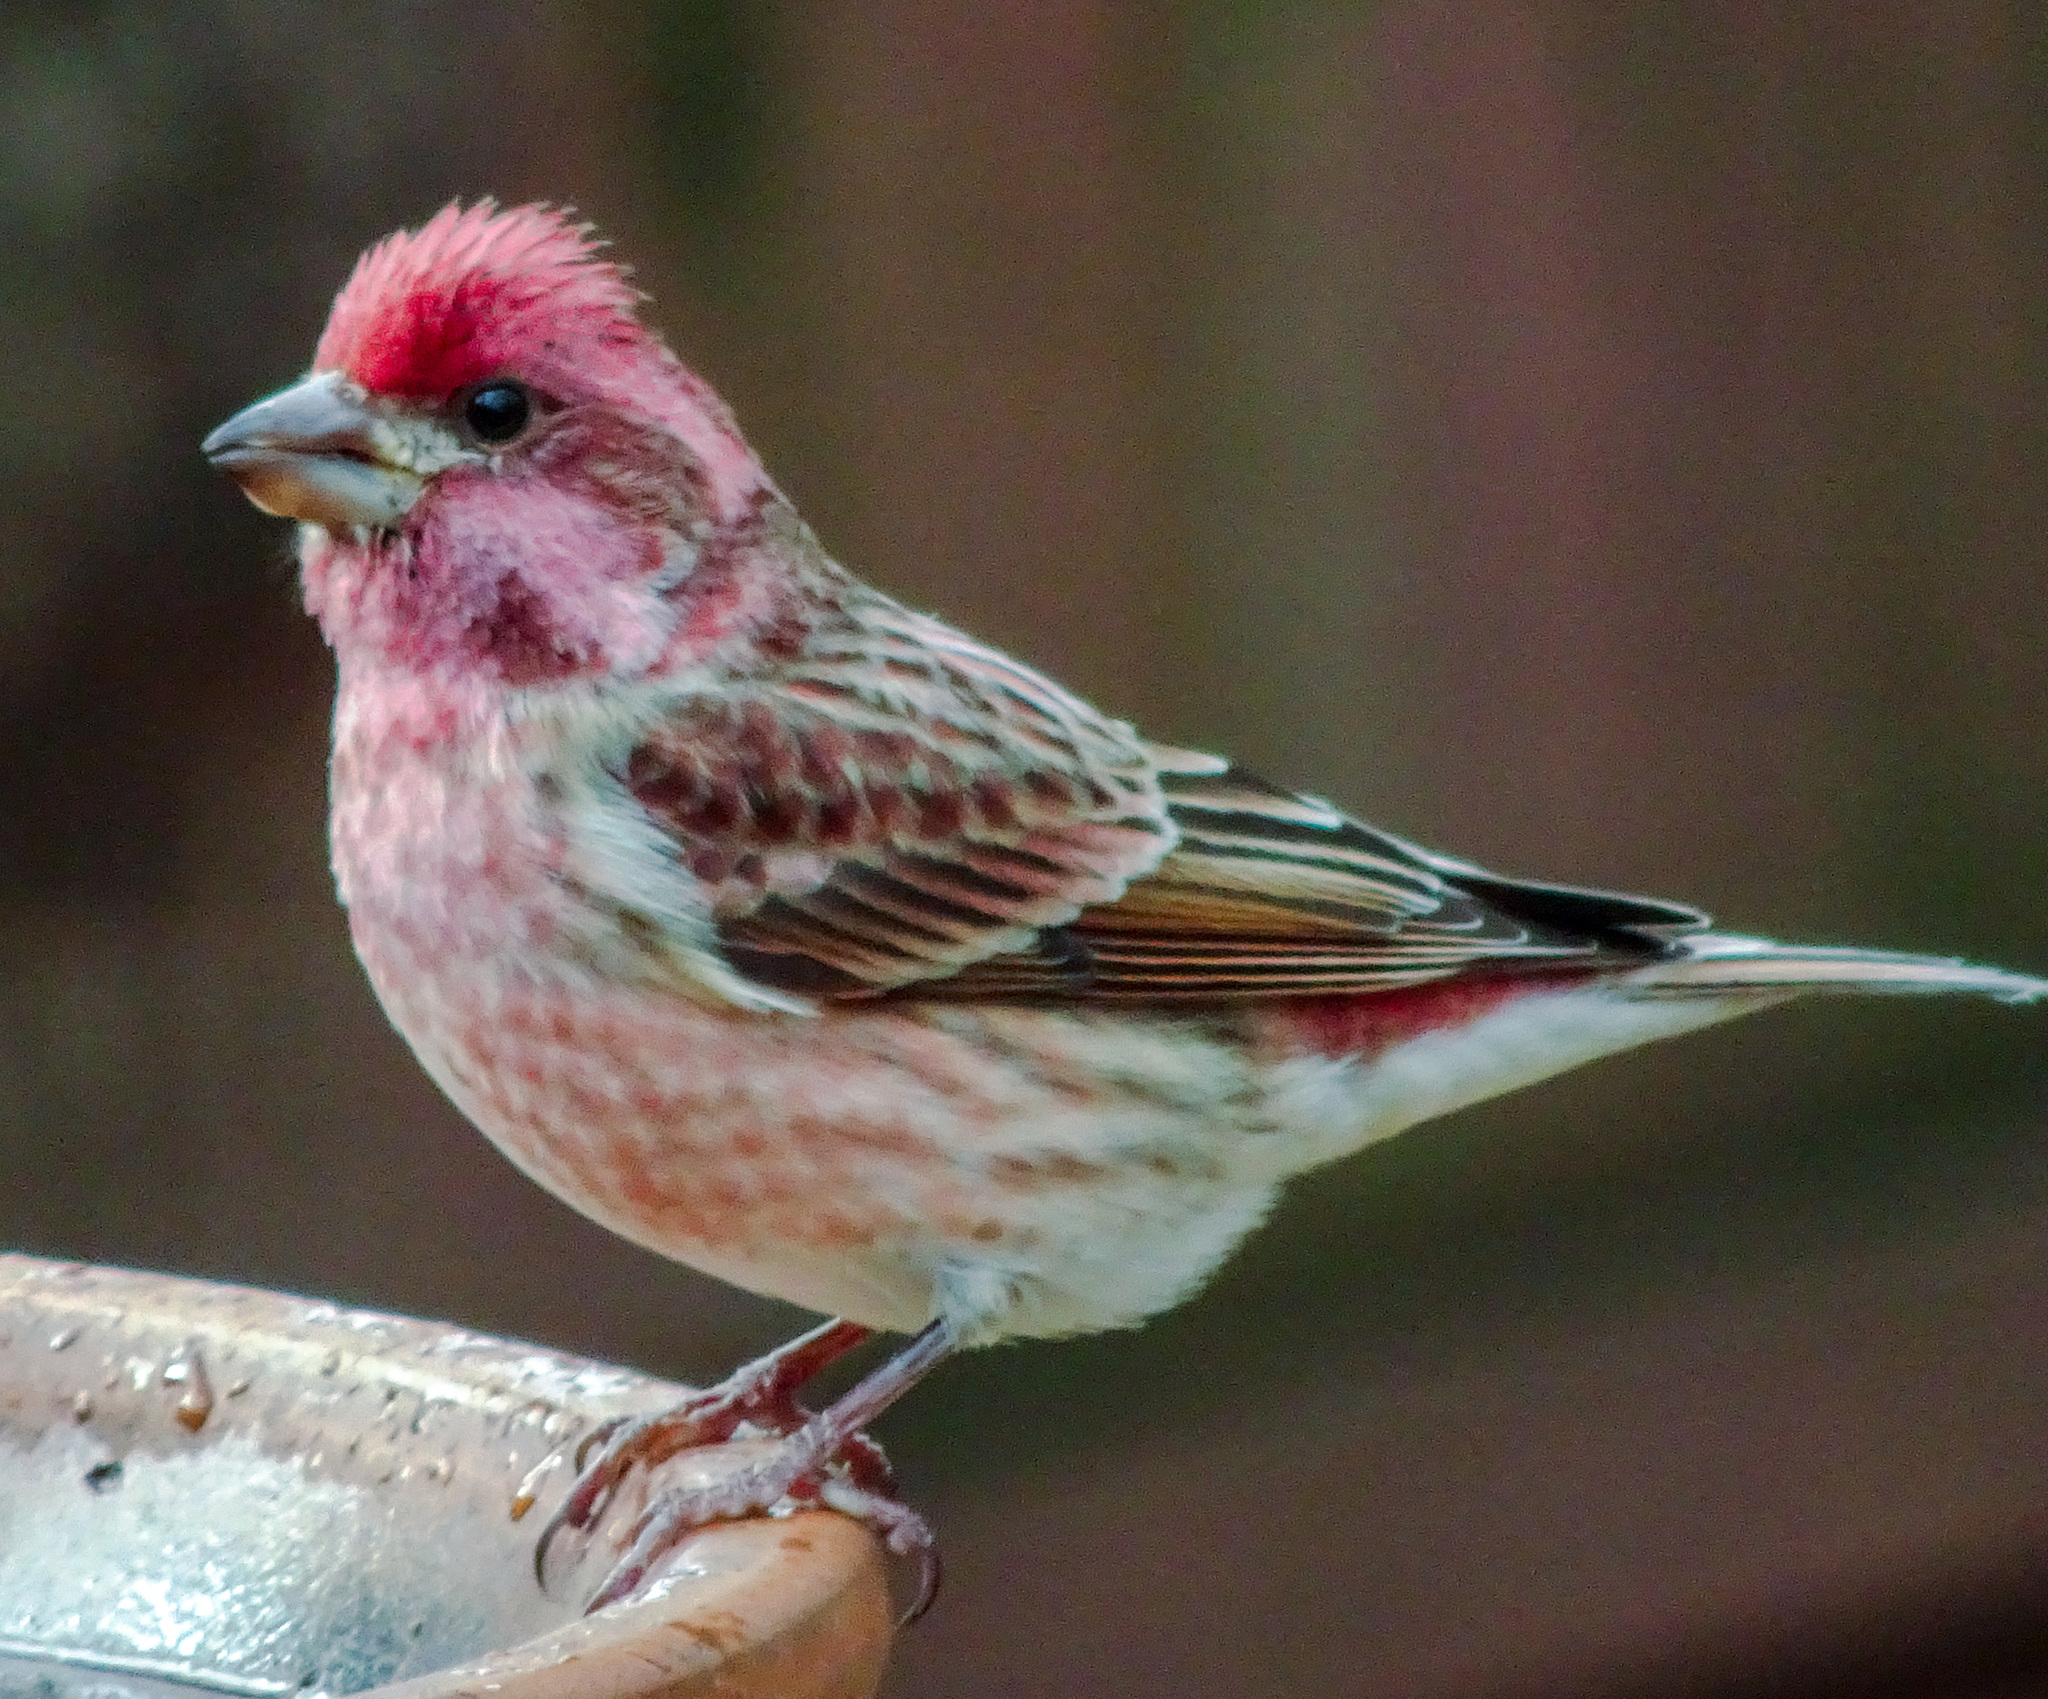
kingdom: Animalia
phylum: Chordata
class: Aves
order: Passeriformes
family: Fringillidae
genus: Haemorhous
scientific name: Haemorhous purpureus
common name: Purple finch
